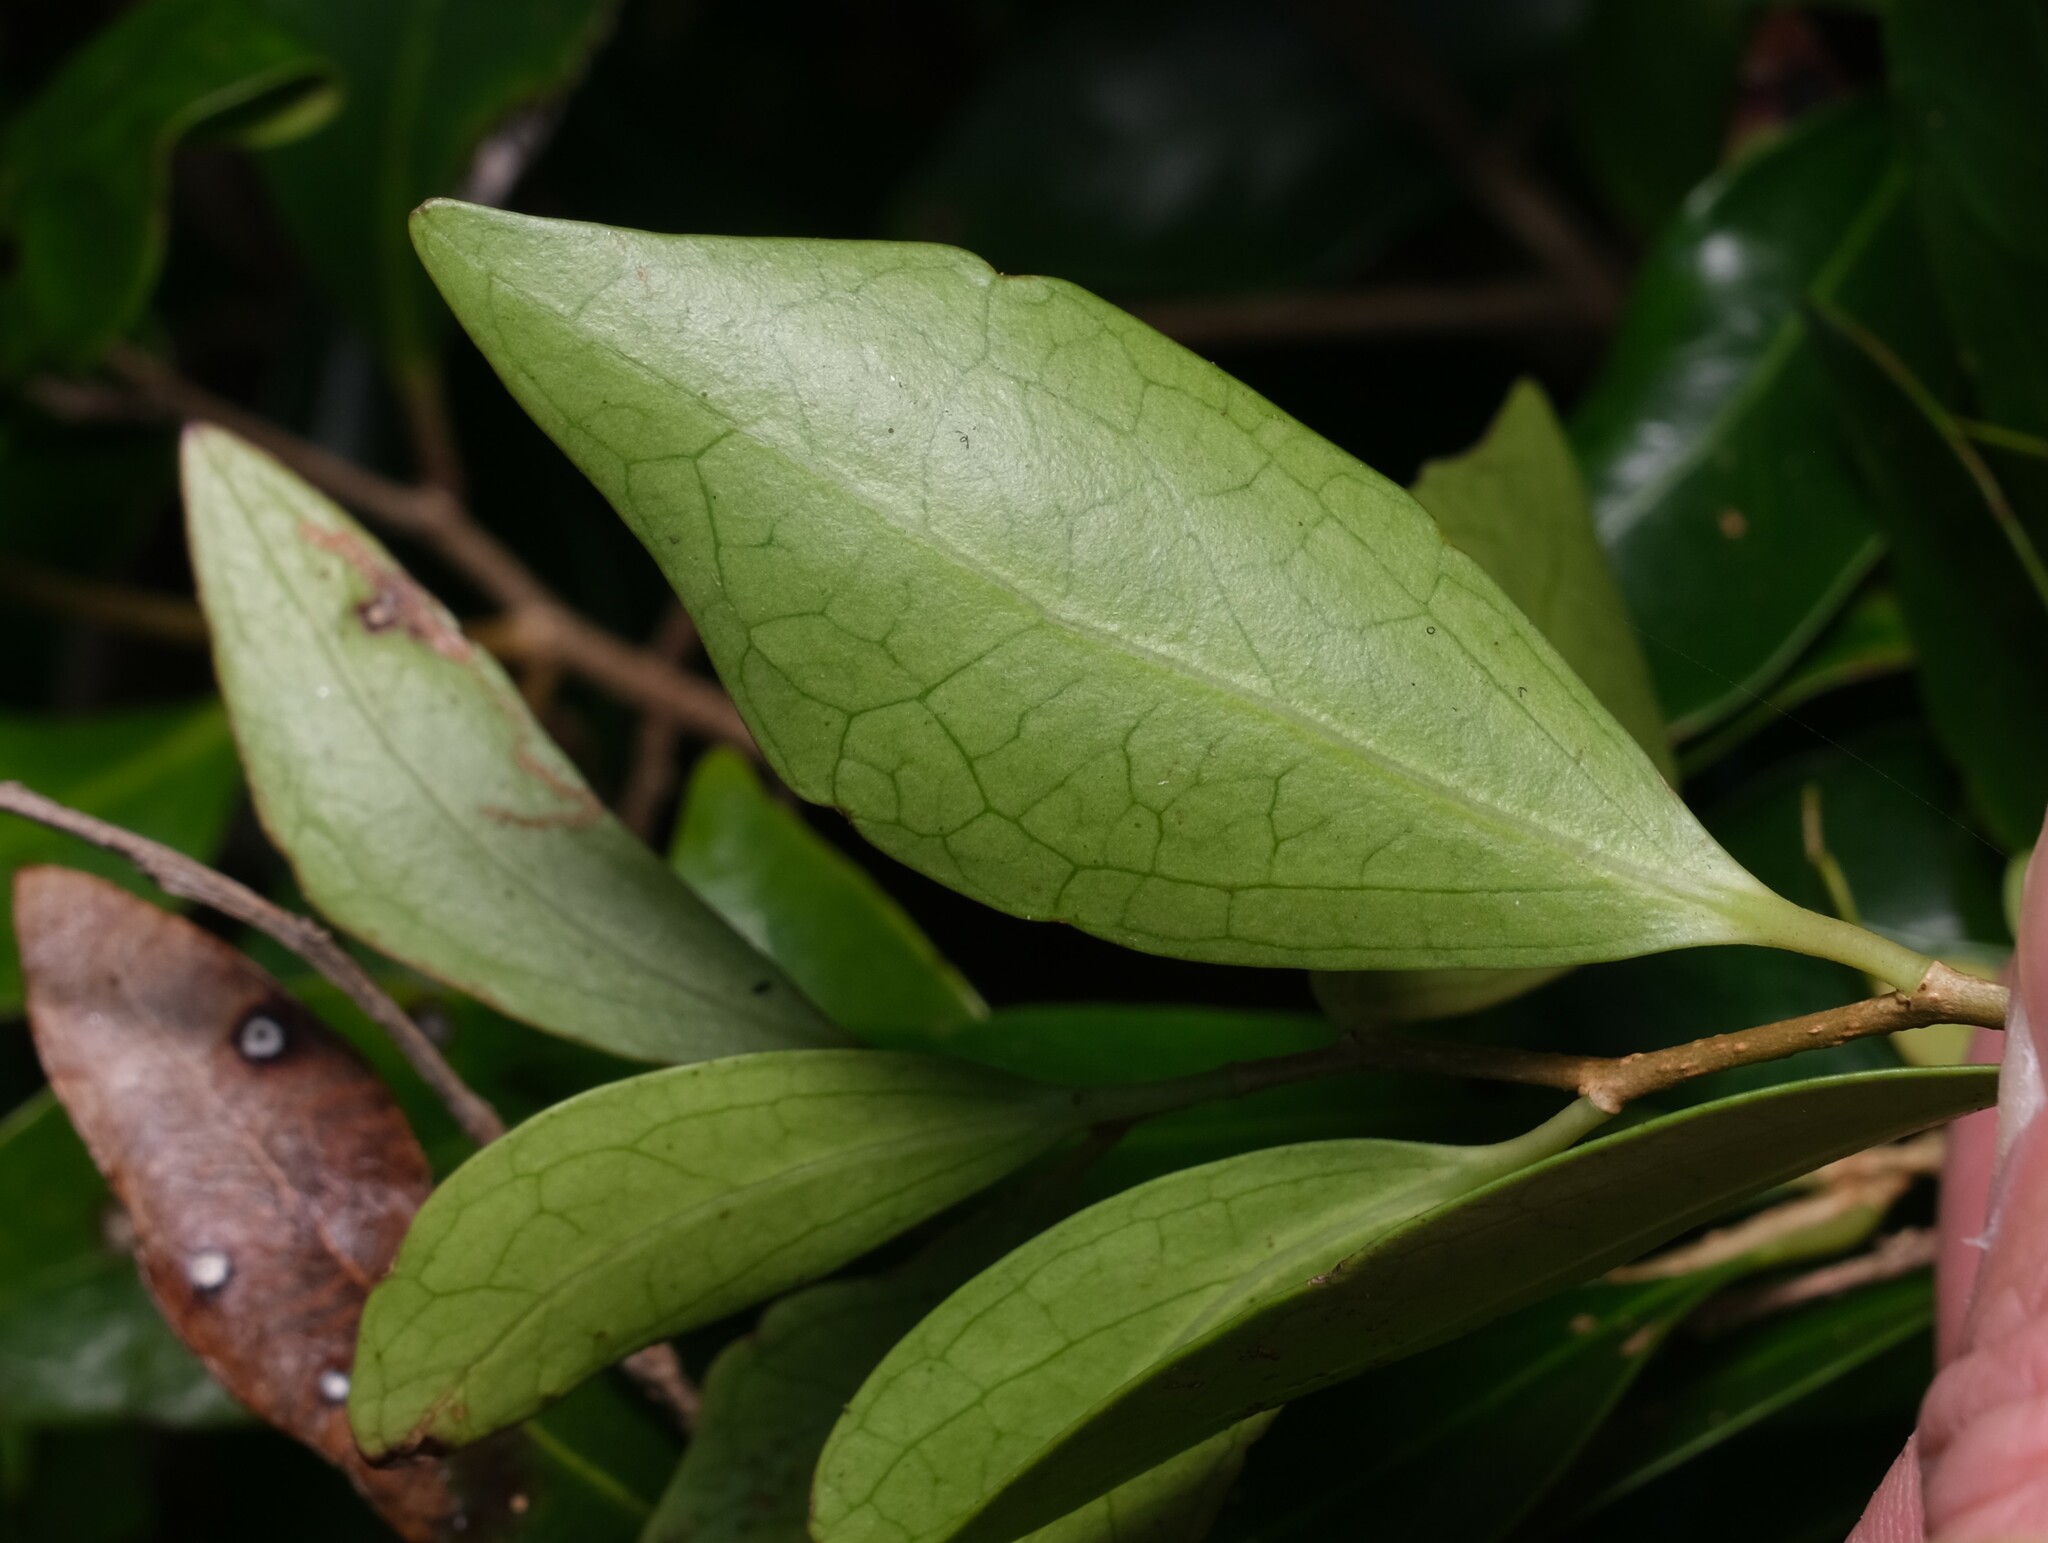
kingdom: Plantae
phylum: Tracheophyta
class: Magnoliopsida
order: Malpighiales
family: Salicaceae
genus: Scolopia
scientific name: Scolopia braunii
